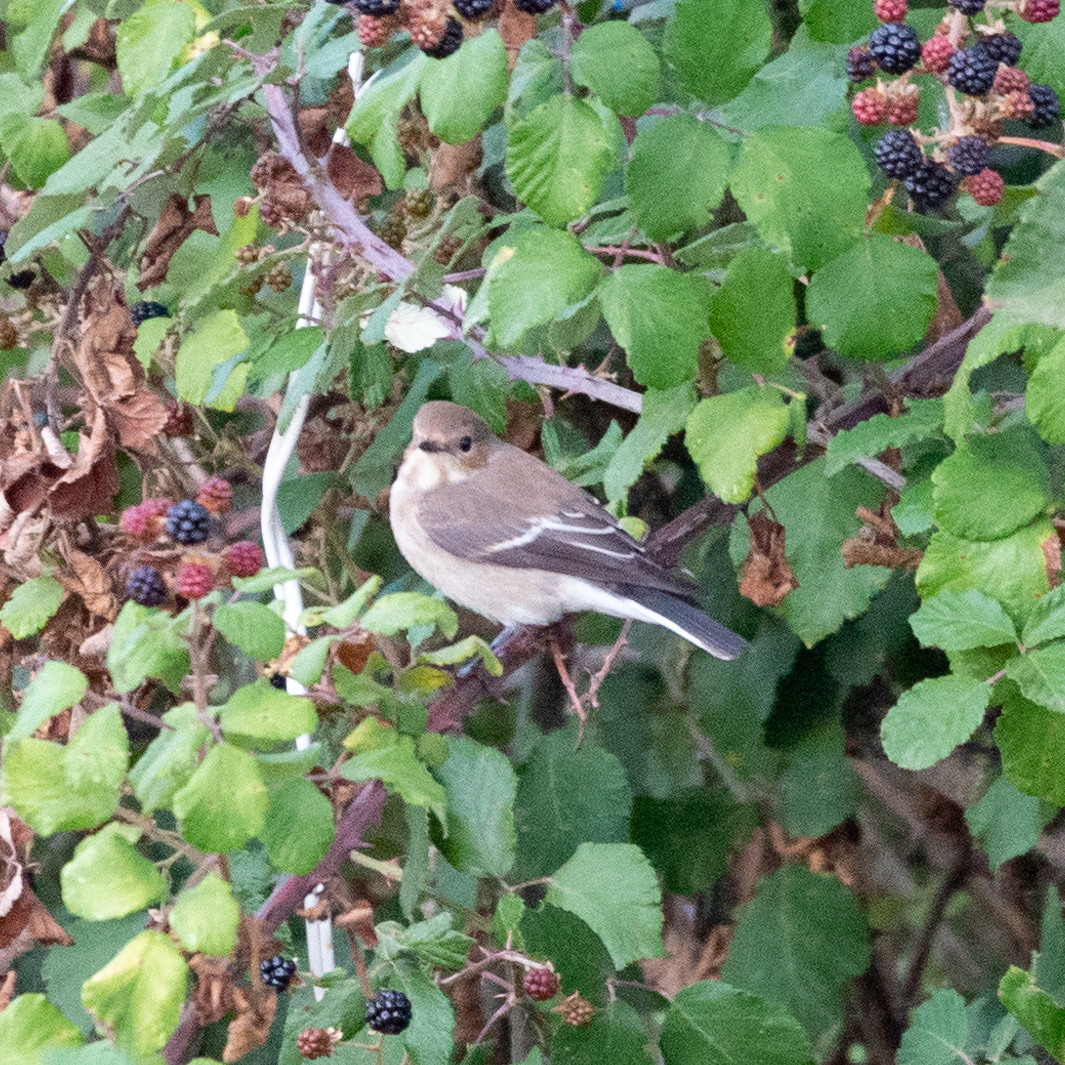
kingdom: Animalia
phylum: Chordata
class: Aves
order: Passeriformes
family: Muscicapidae
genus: Ficedula
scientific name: Ficedula hypoleuca
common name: European pied flycatcher
